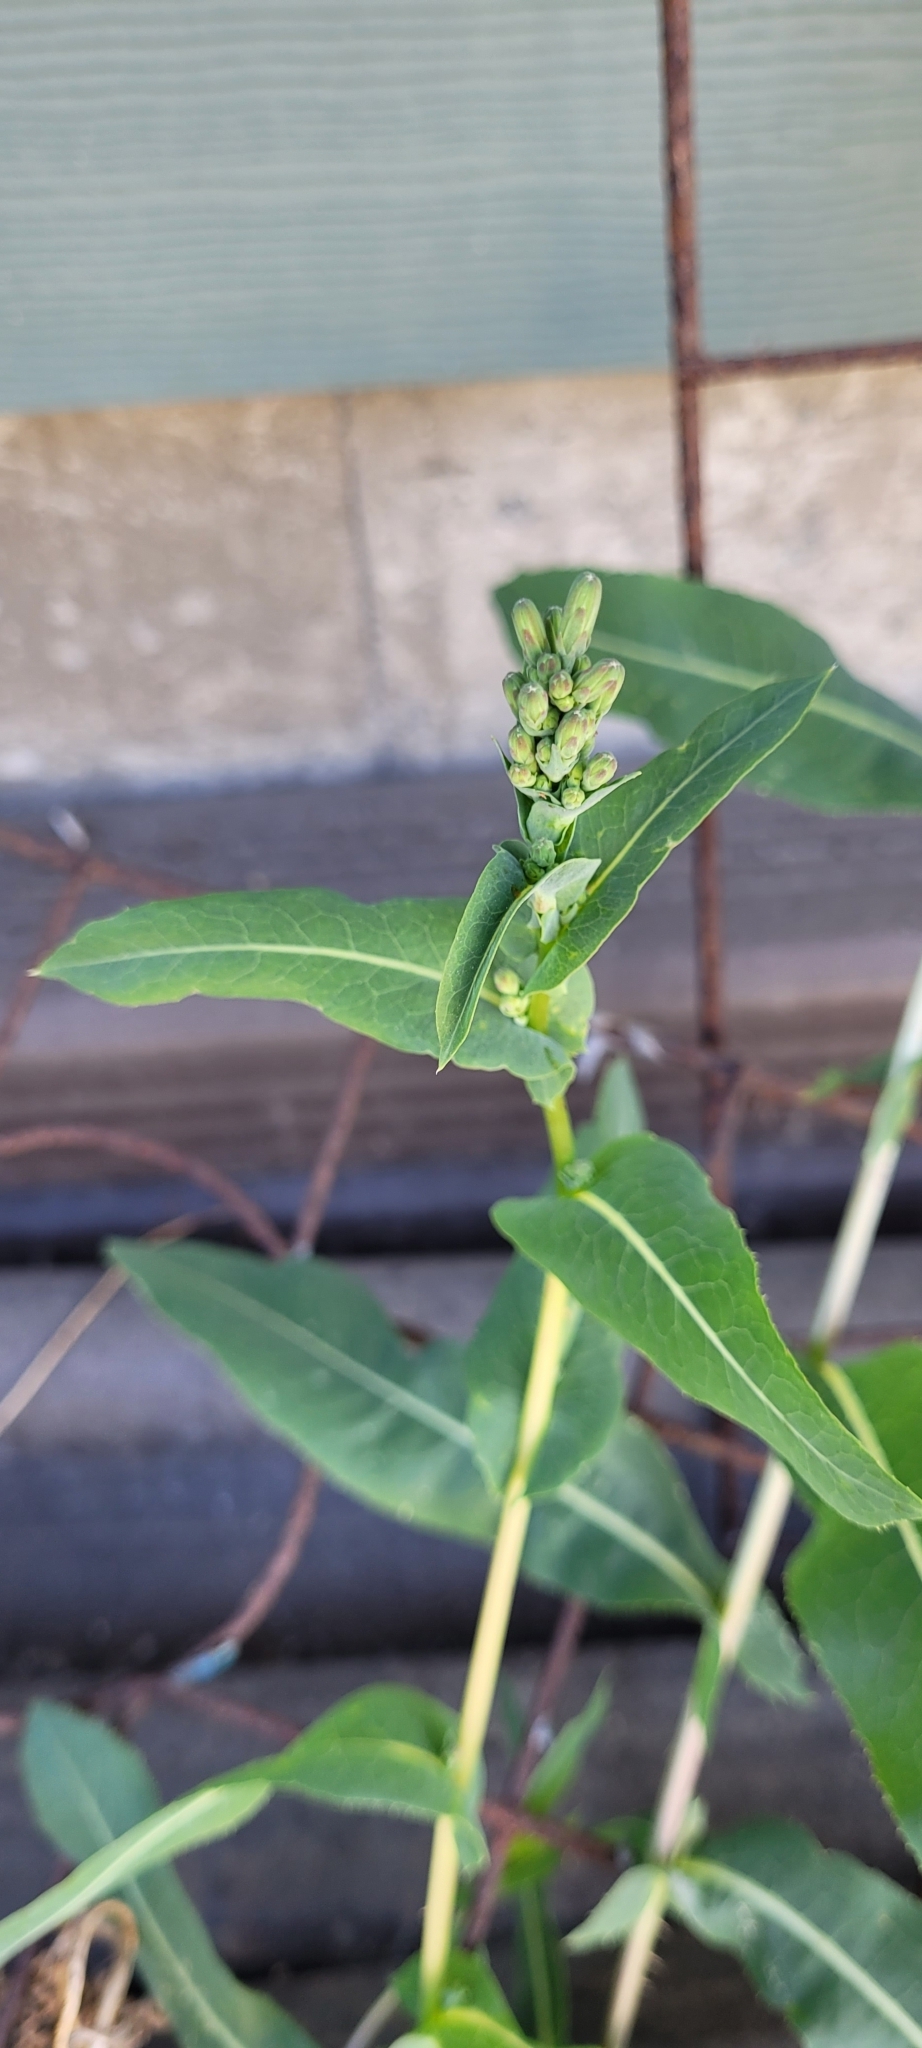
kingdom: Plantae
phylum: Tracheophyta
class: Magnoliopsida
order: Asterales
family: Asteraceae
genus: Lactuca
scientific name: Lactuca serriola
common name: Prickly lettuce
